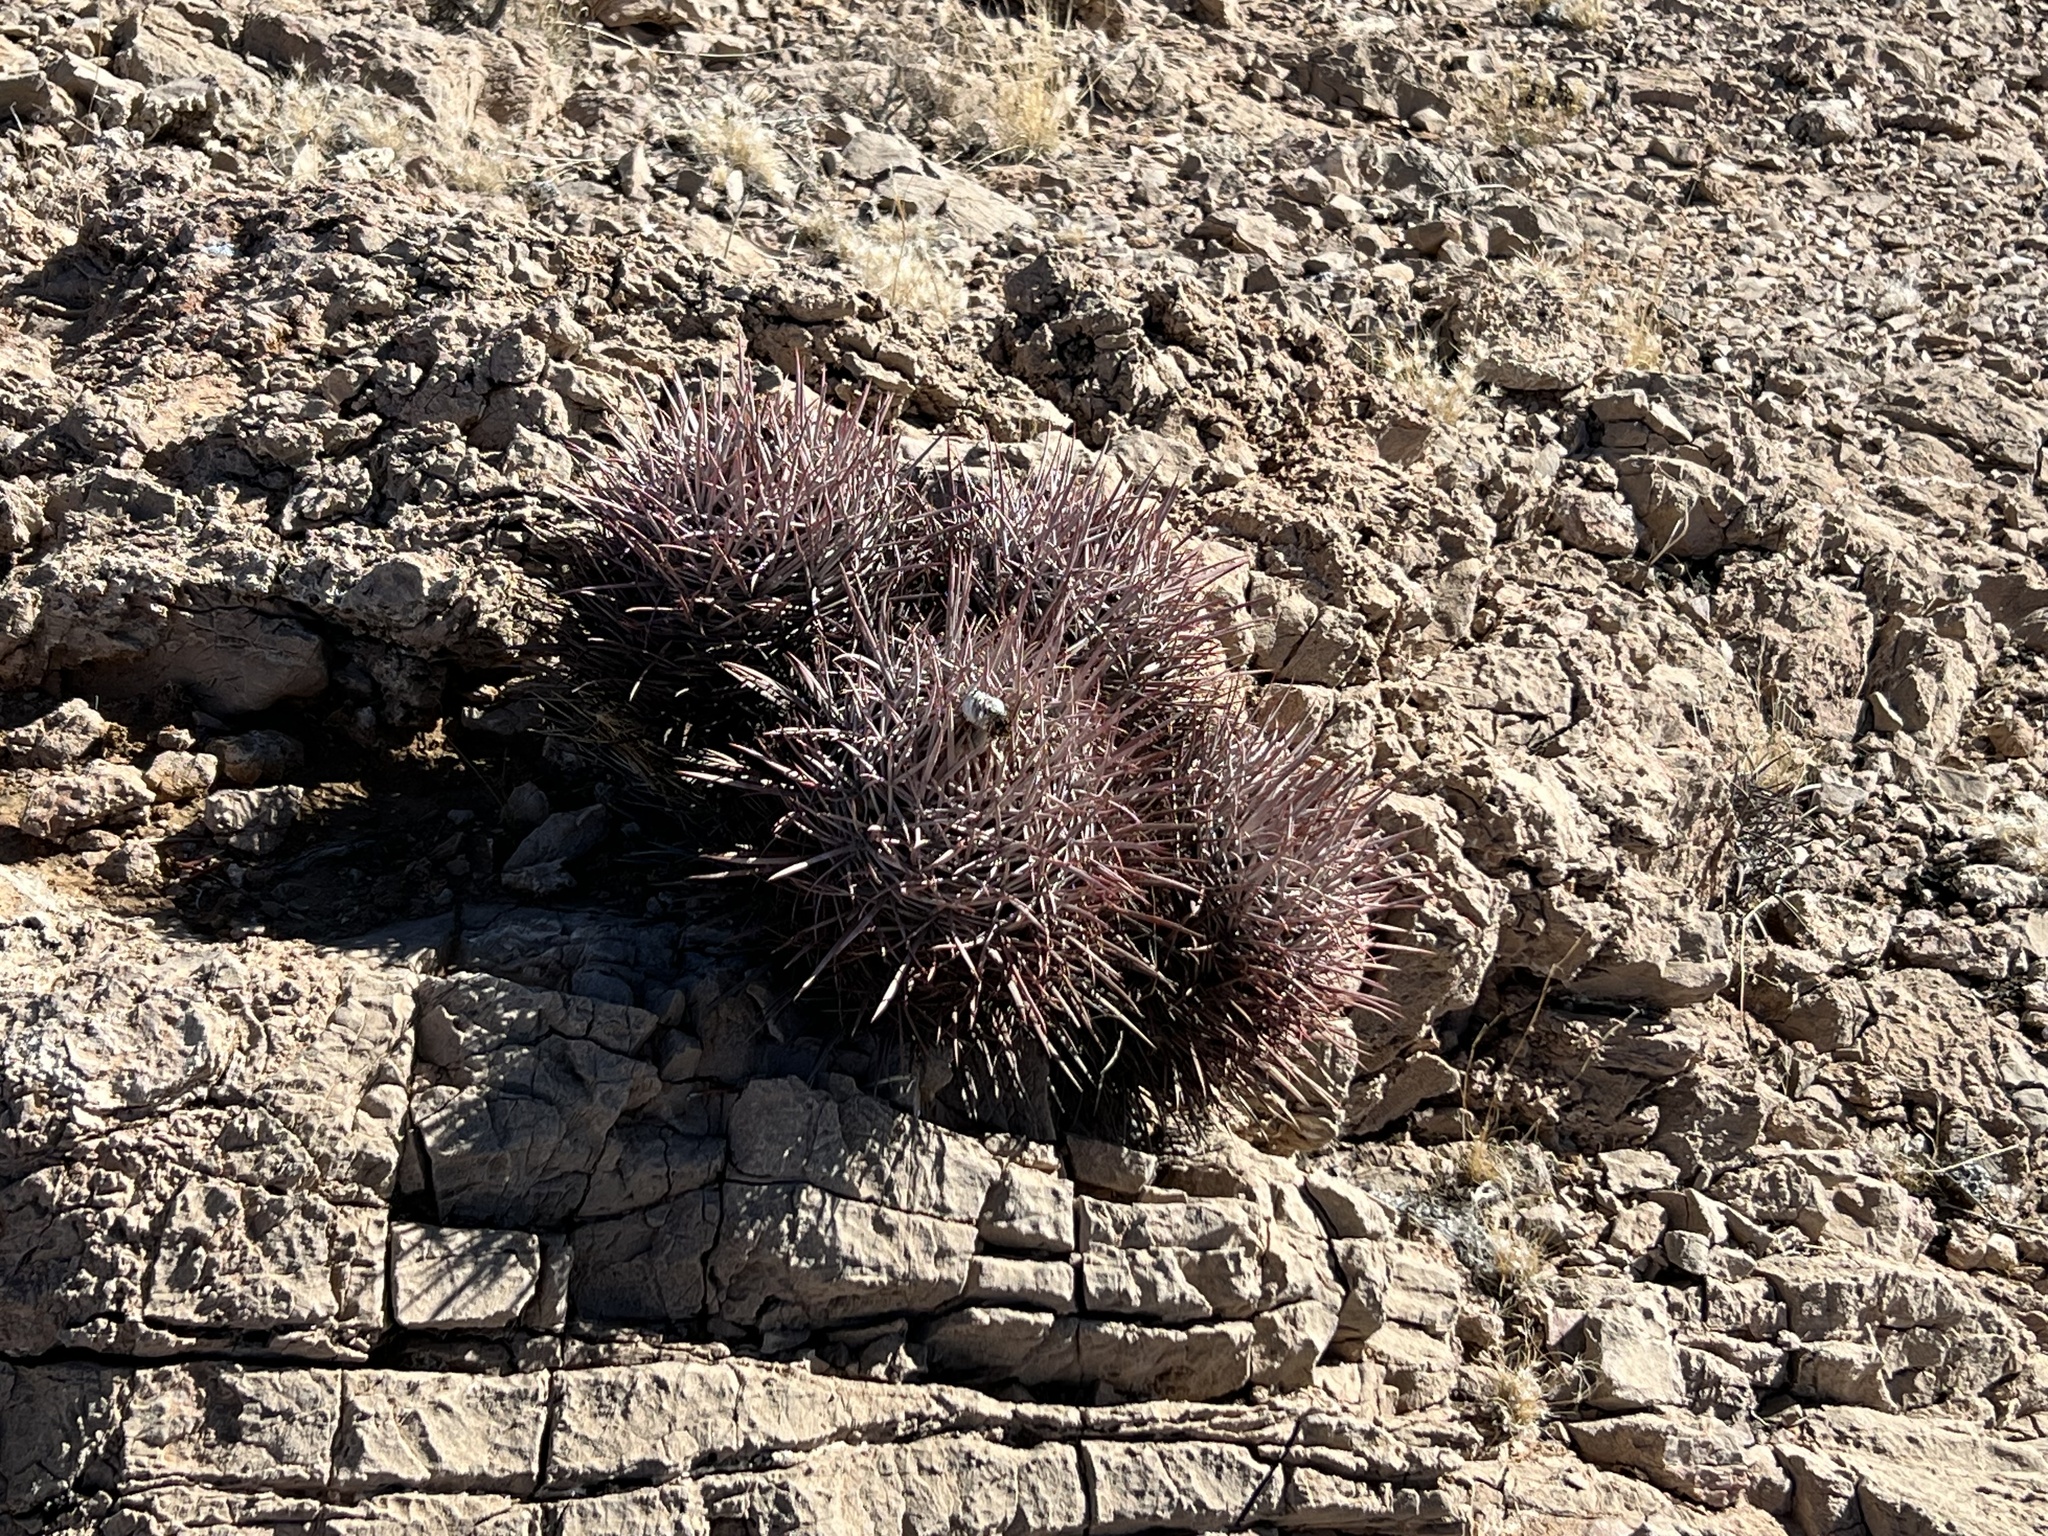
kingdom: Plantae
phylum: Tracheophyta
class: Magnoliopsida
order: Caryophyllales
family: Cactaceae
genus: Echinocactus
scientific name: Echinocactus polycephalus
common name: Cottontop cactus
